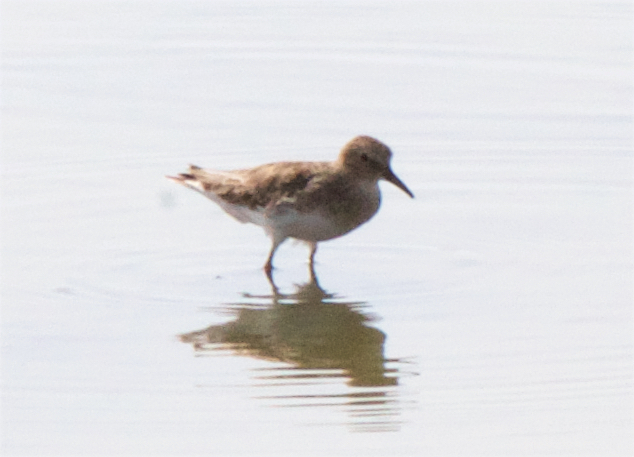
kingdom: Animalia
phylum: Chordata
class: Aves
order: Charadriiformes
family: Scolopacidae
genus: Calidris
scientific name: Calidris minutilla
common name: Least sandpiper
